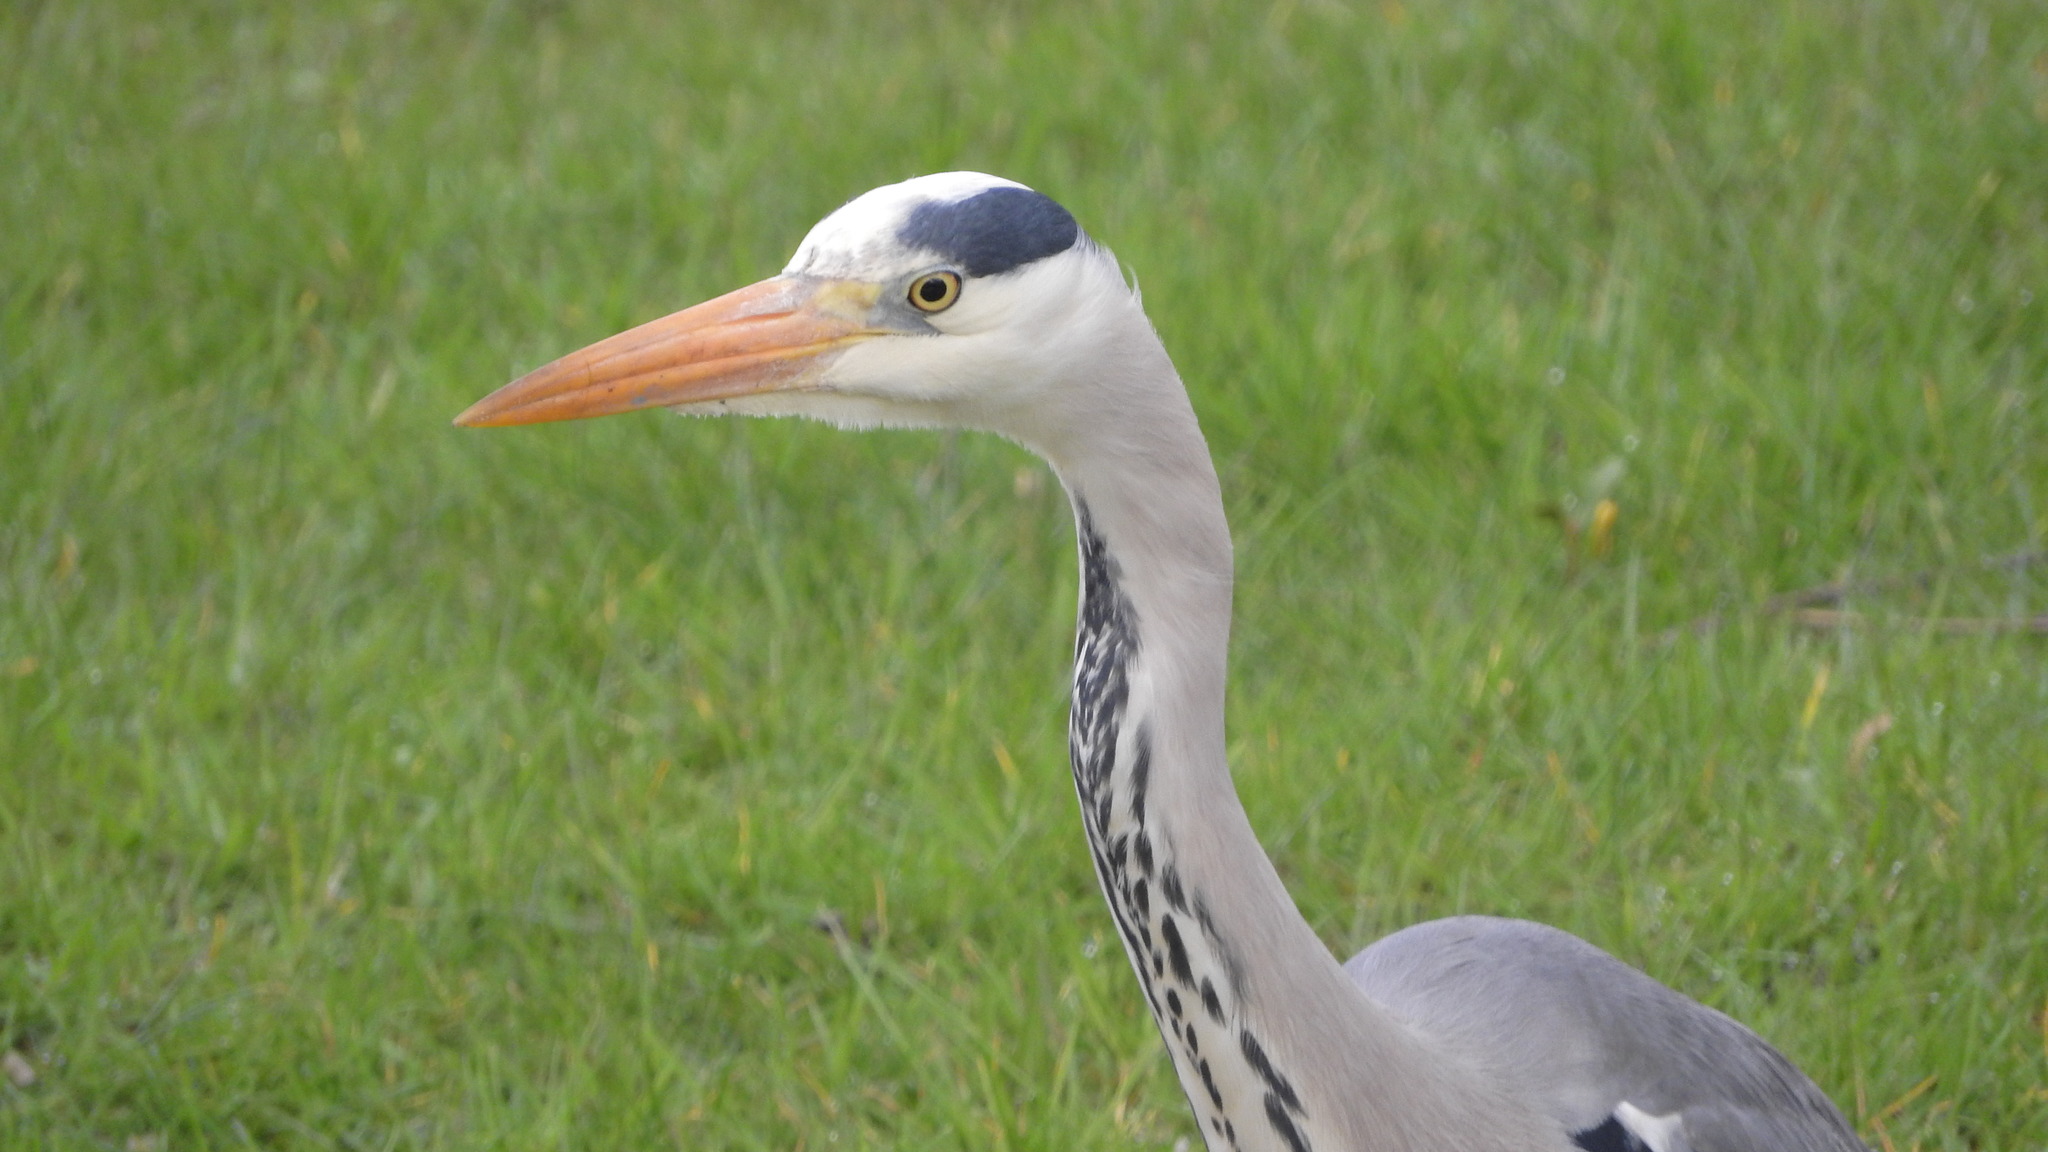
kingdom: Animalia
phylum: Chordata
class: Aves
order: Pelecaniformes
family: Ardeidae
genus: Ardea
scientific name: Ardea cinerea
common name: Grey heron
